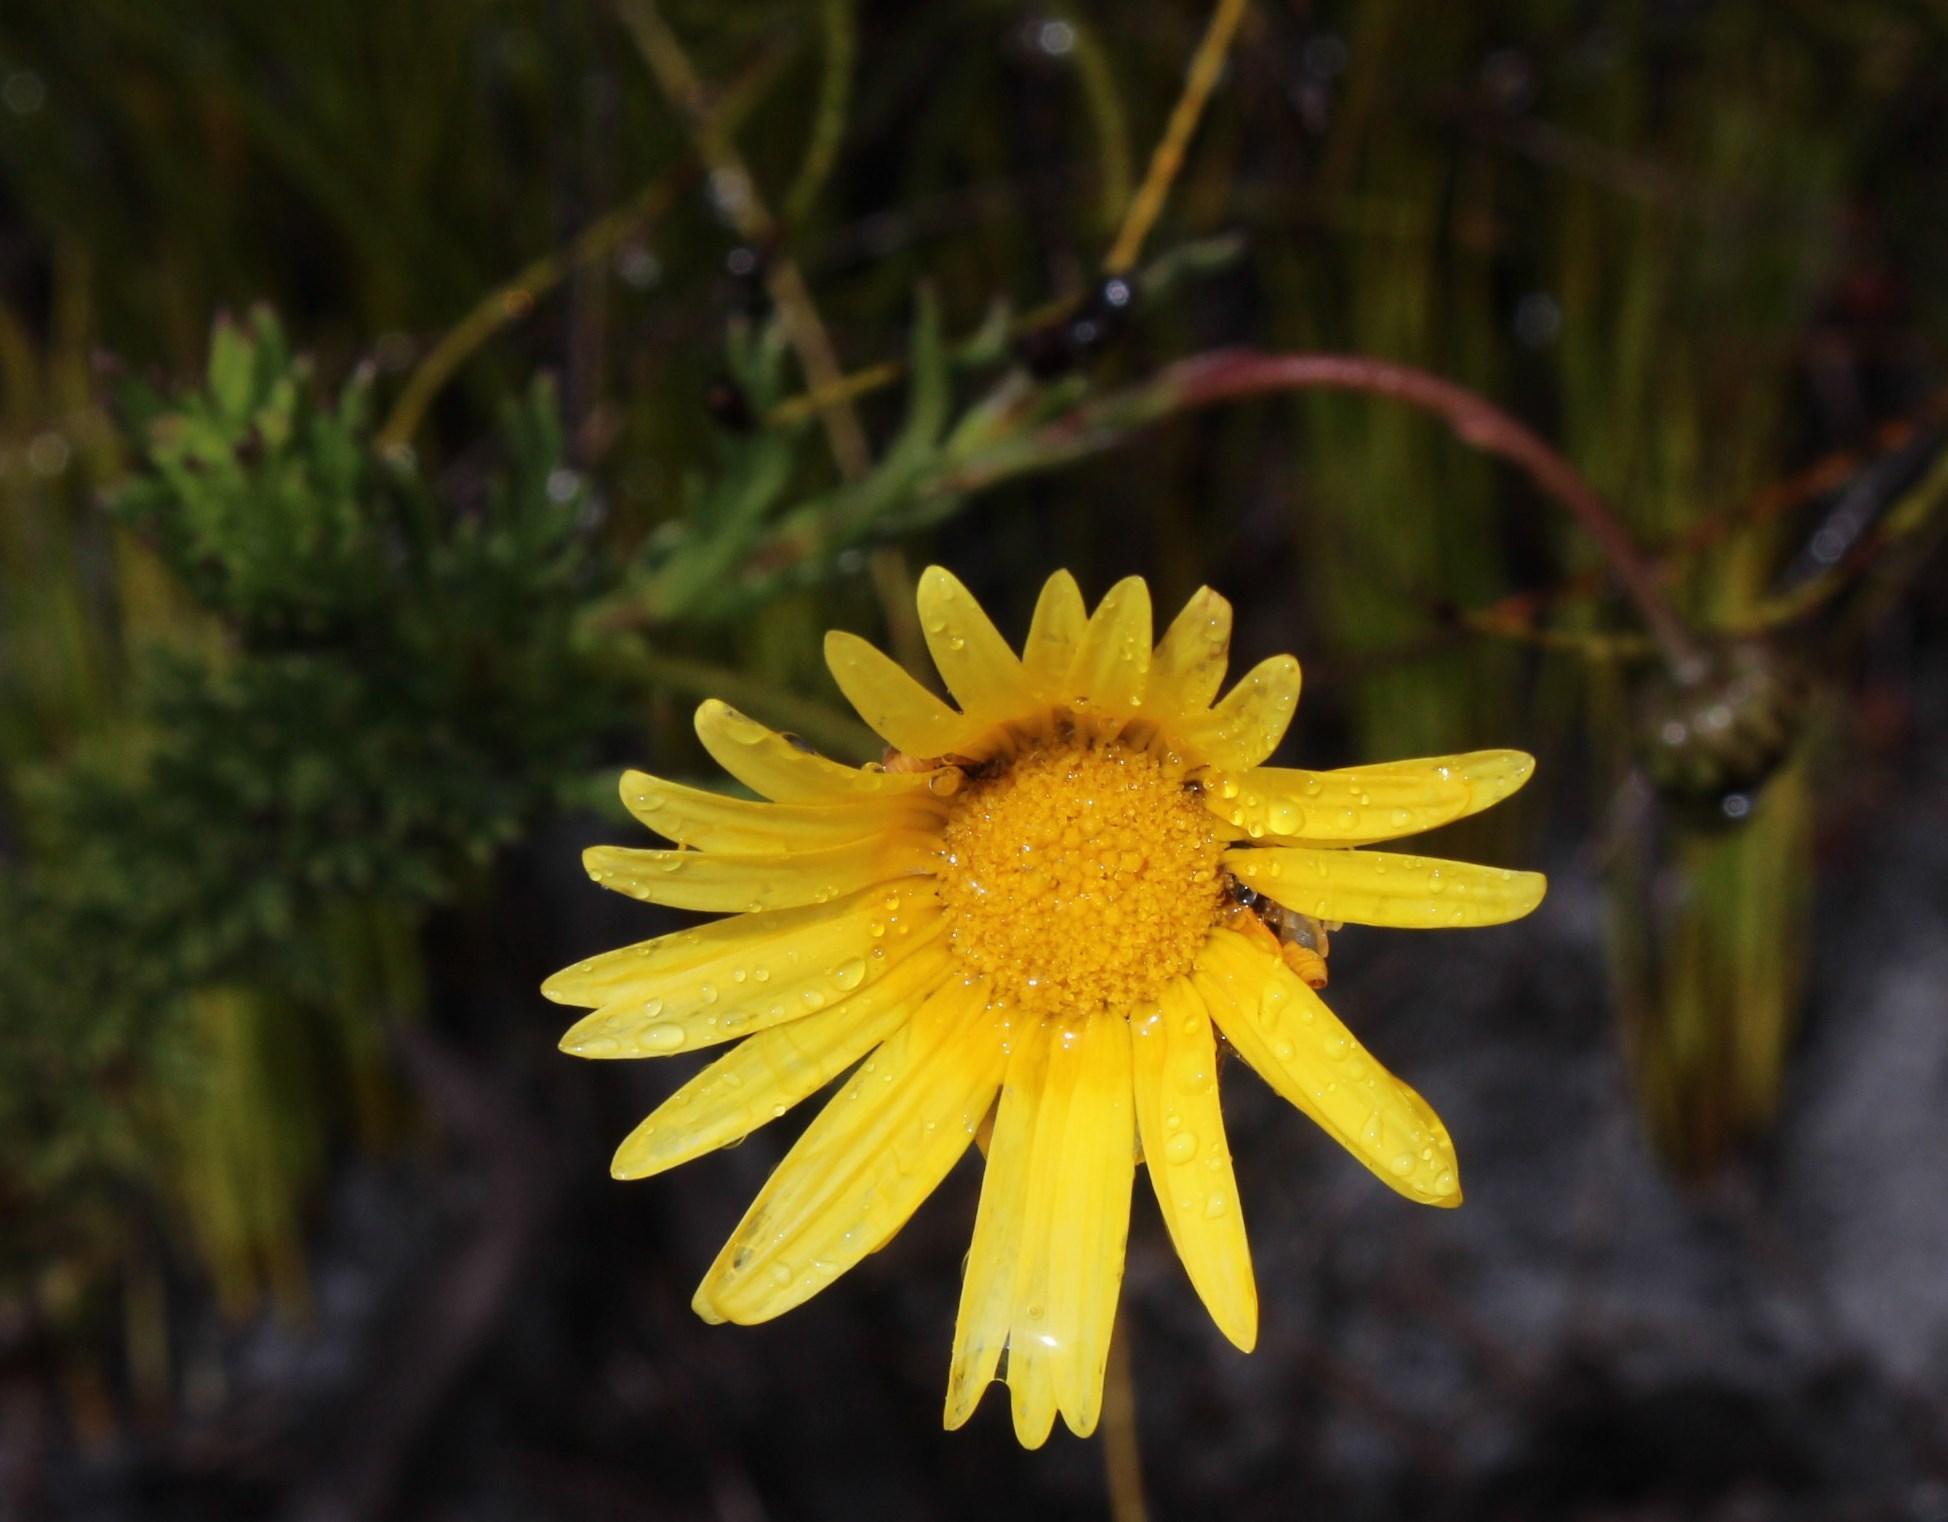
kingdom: Plantae
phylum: Tracheophyta
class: Magnoliopsida
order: Asterales
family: Asteraceae
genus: Euryops
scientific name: Euryops abrotanifolius
